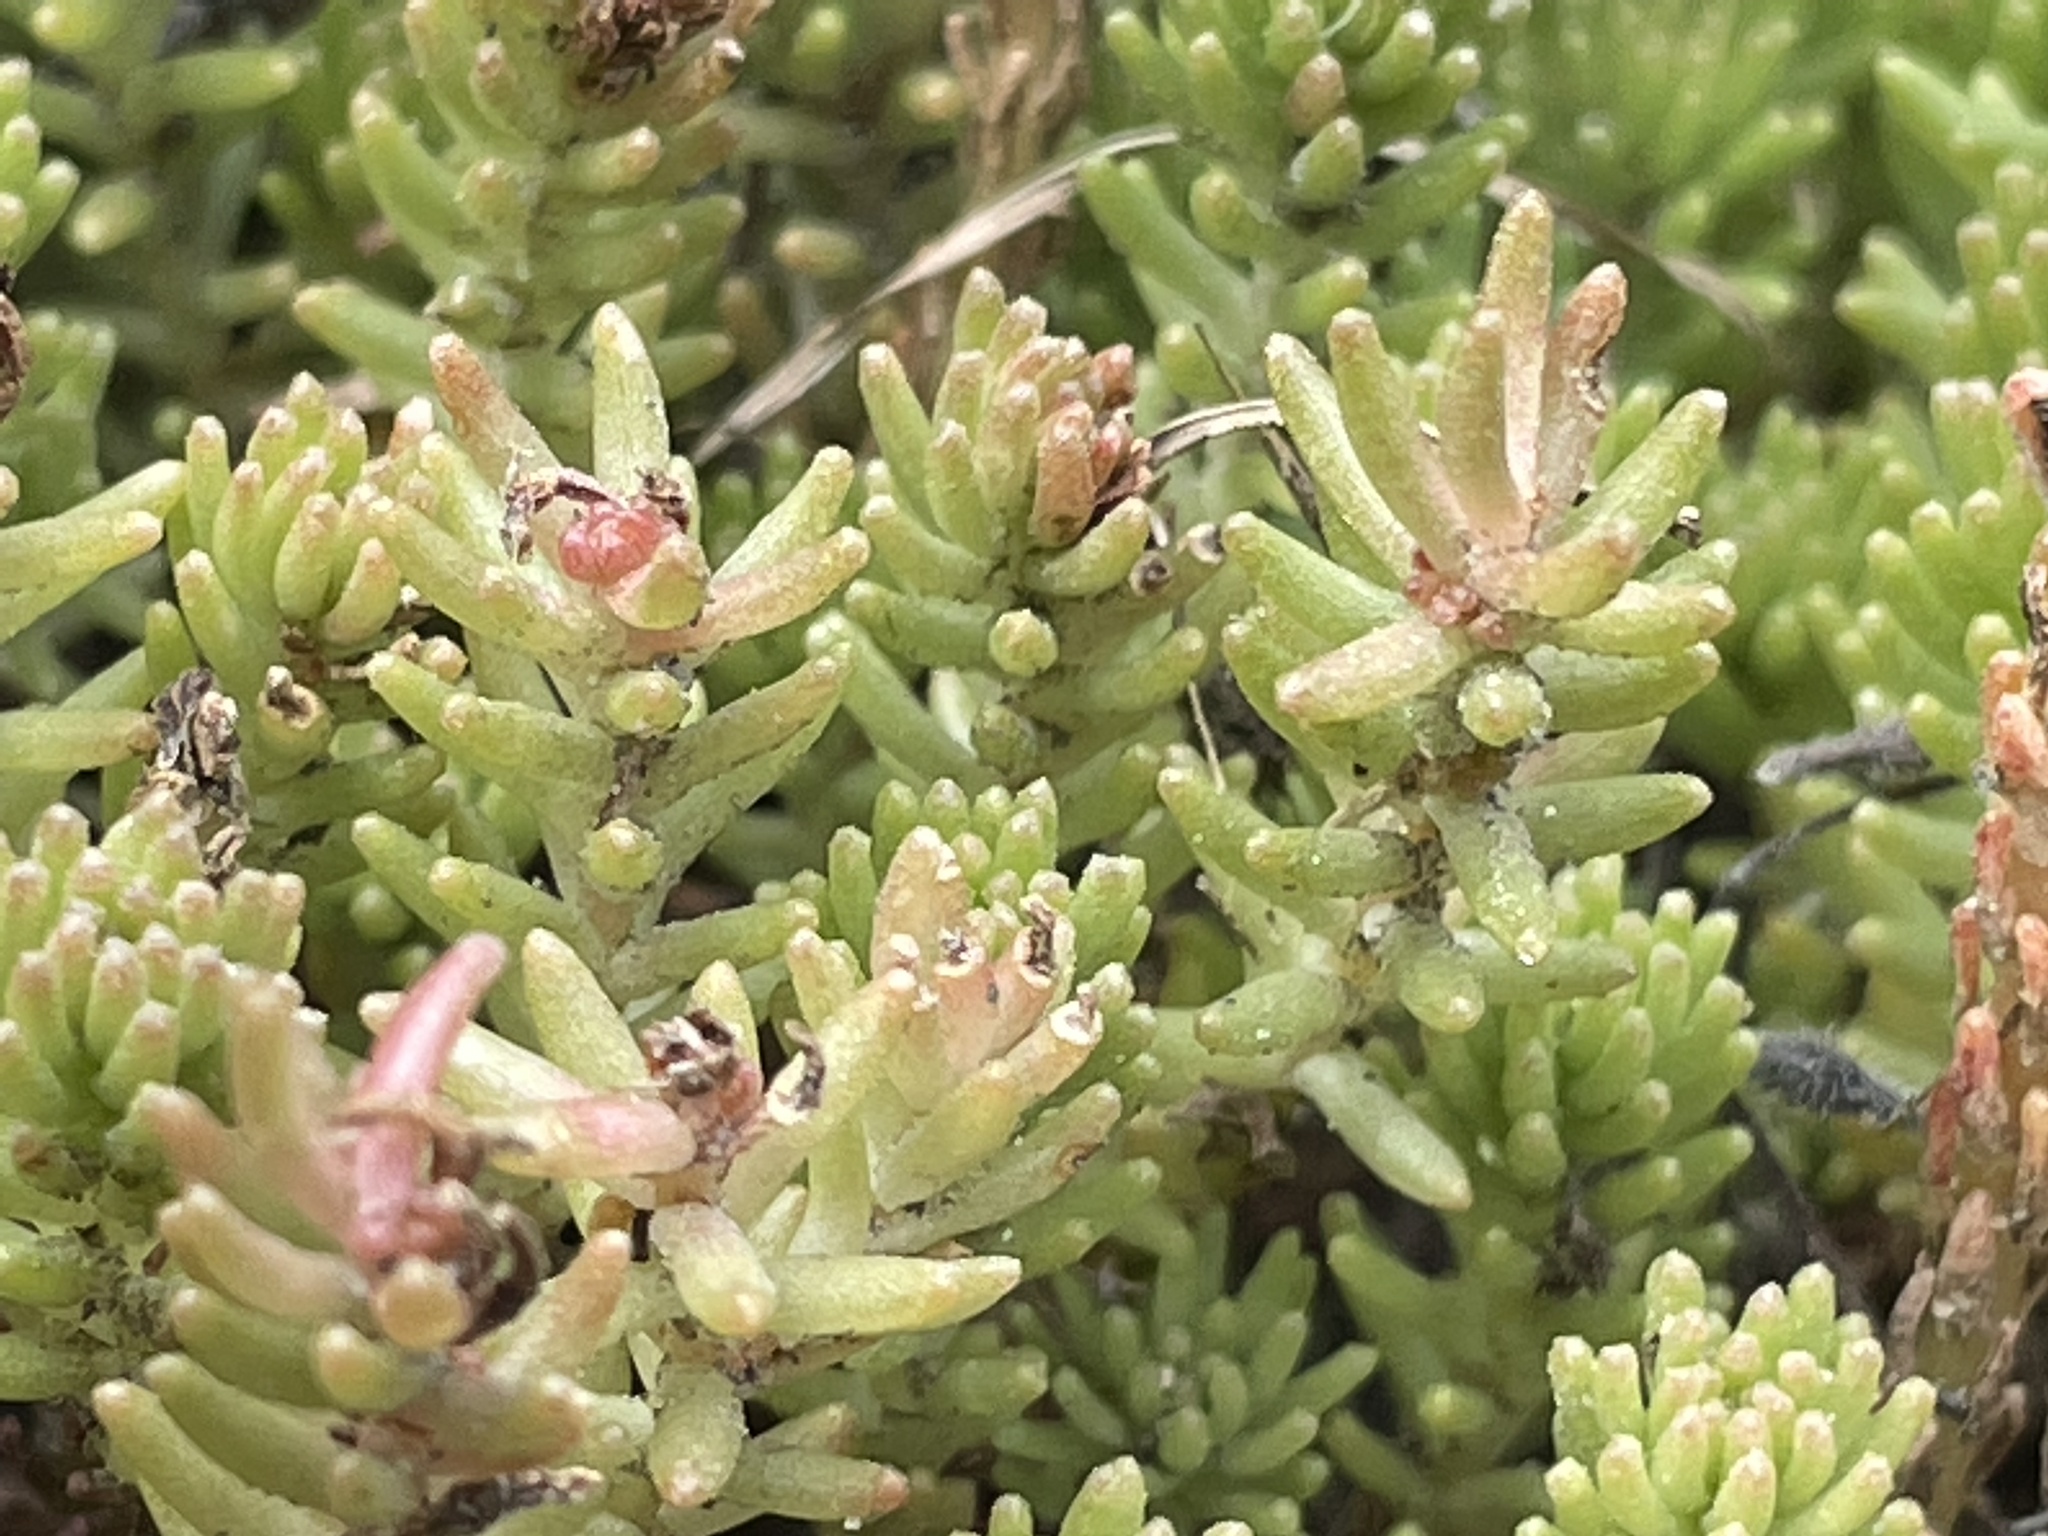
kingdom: Plantae
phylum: Tracheophyta
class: Magnoliopsida
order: Saxifragales
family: Crassulaceae
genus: Sedum
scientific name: Sedum sexangulare
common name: Tasteless stonecrop
